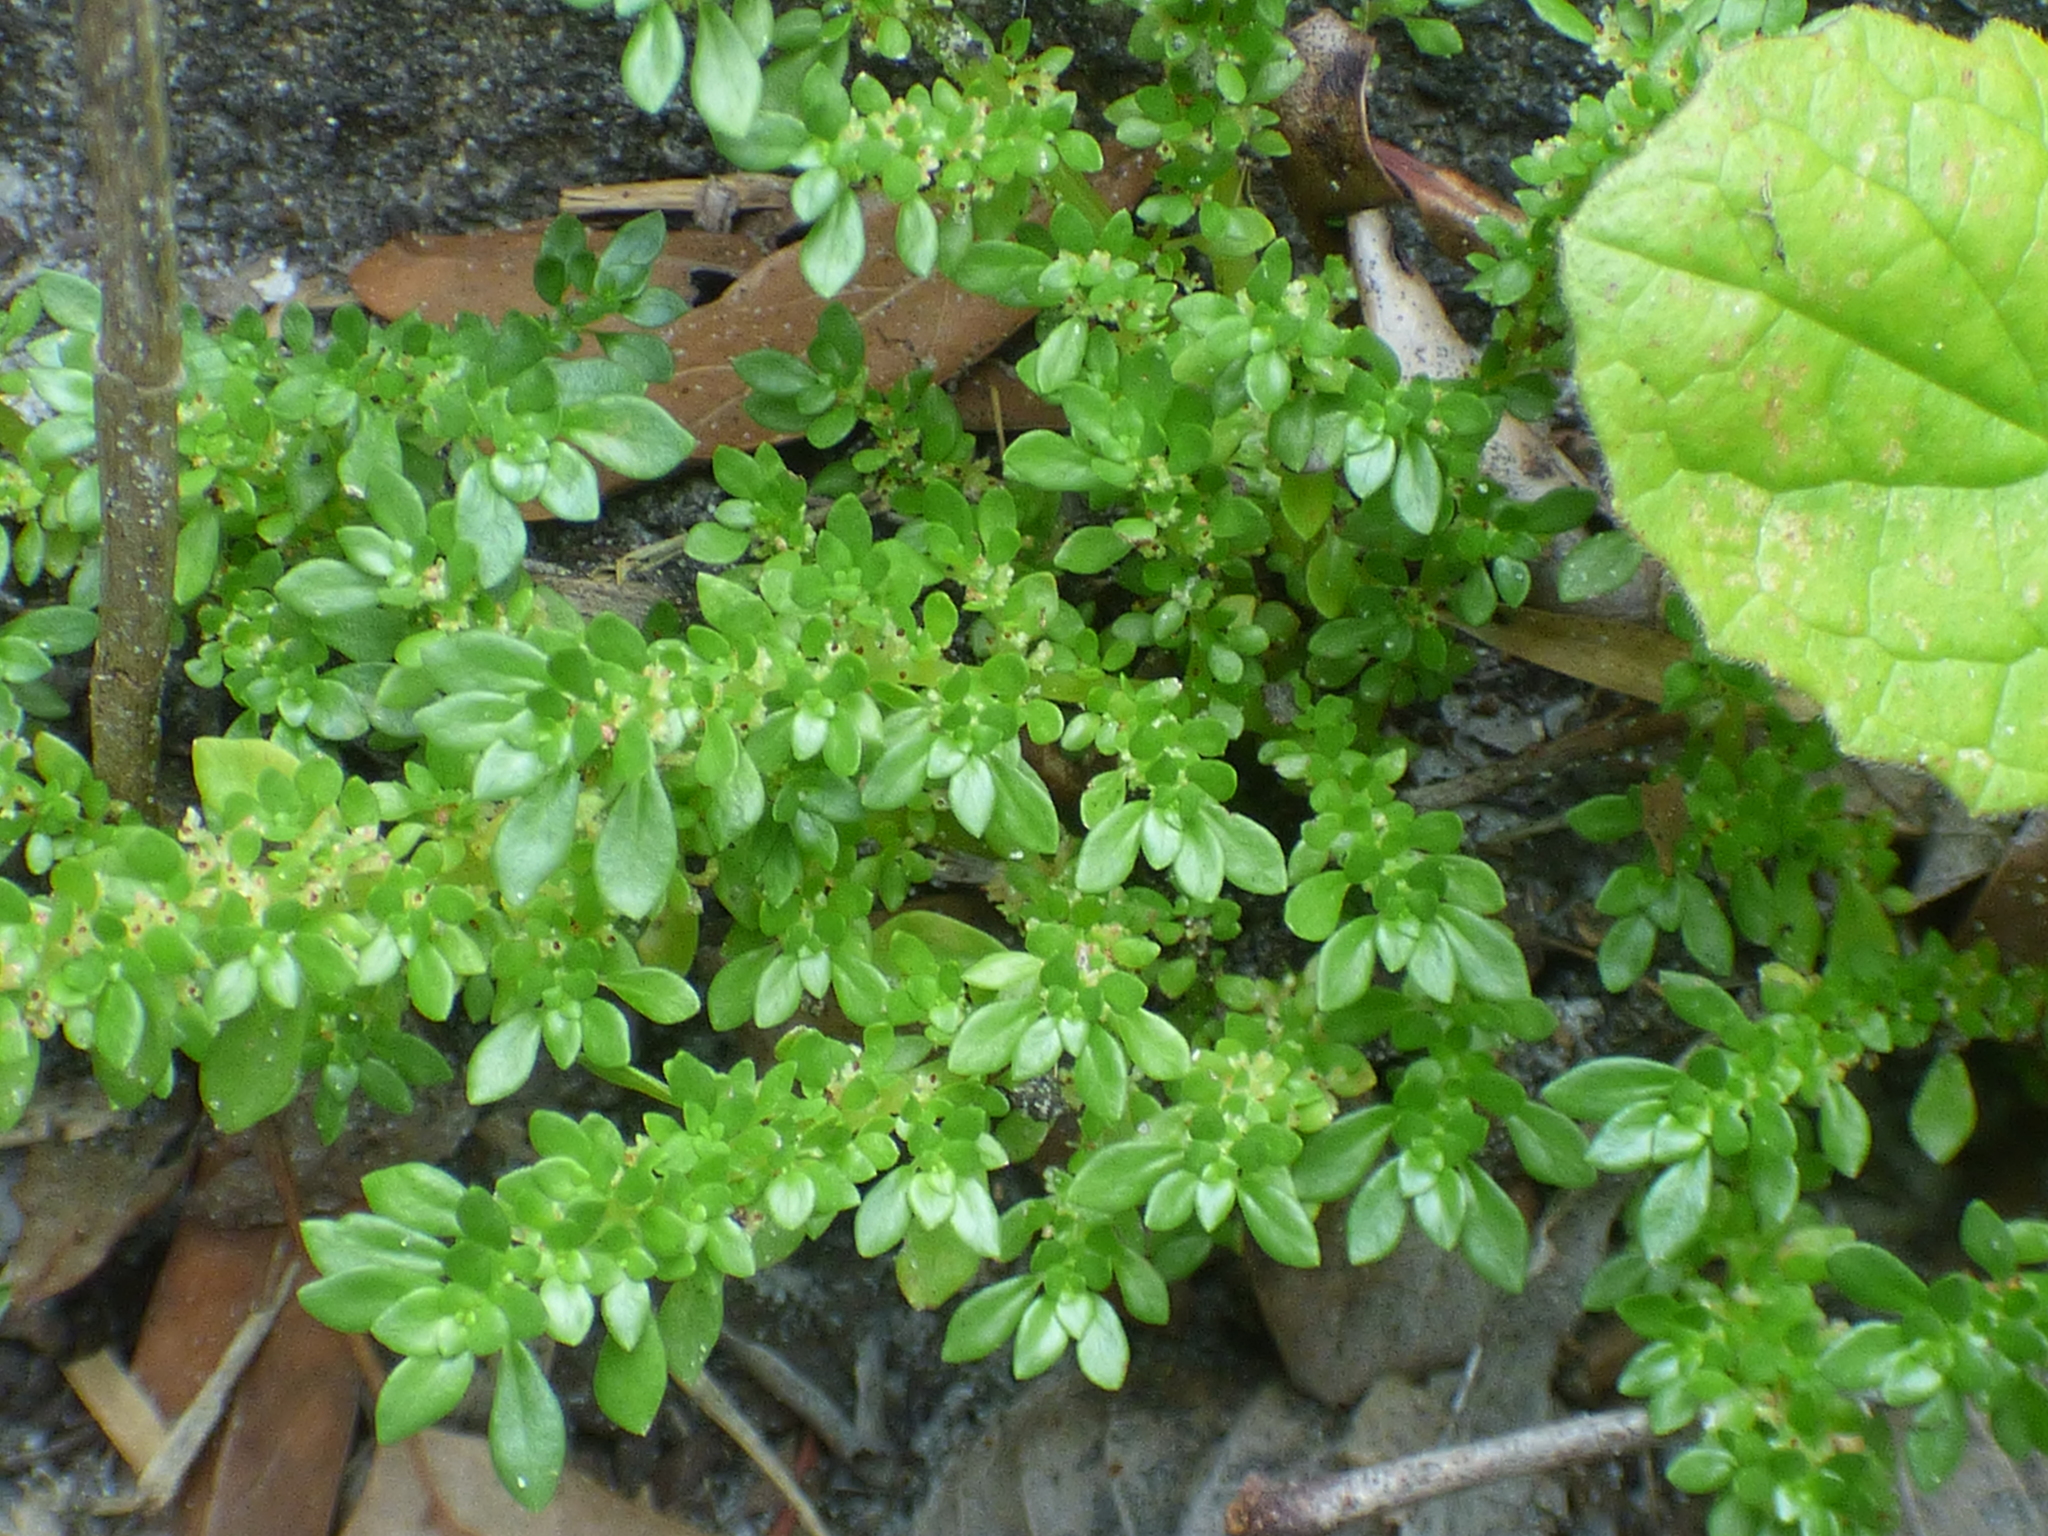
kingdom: Plantae
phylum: Tracheophyta
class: Magnoliopsida
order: Rosales
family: Urticaceae
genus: Pilea
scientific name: Pilea microphylla
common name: Artillery-plant
